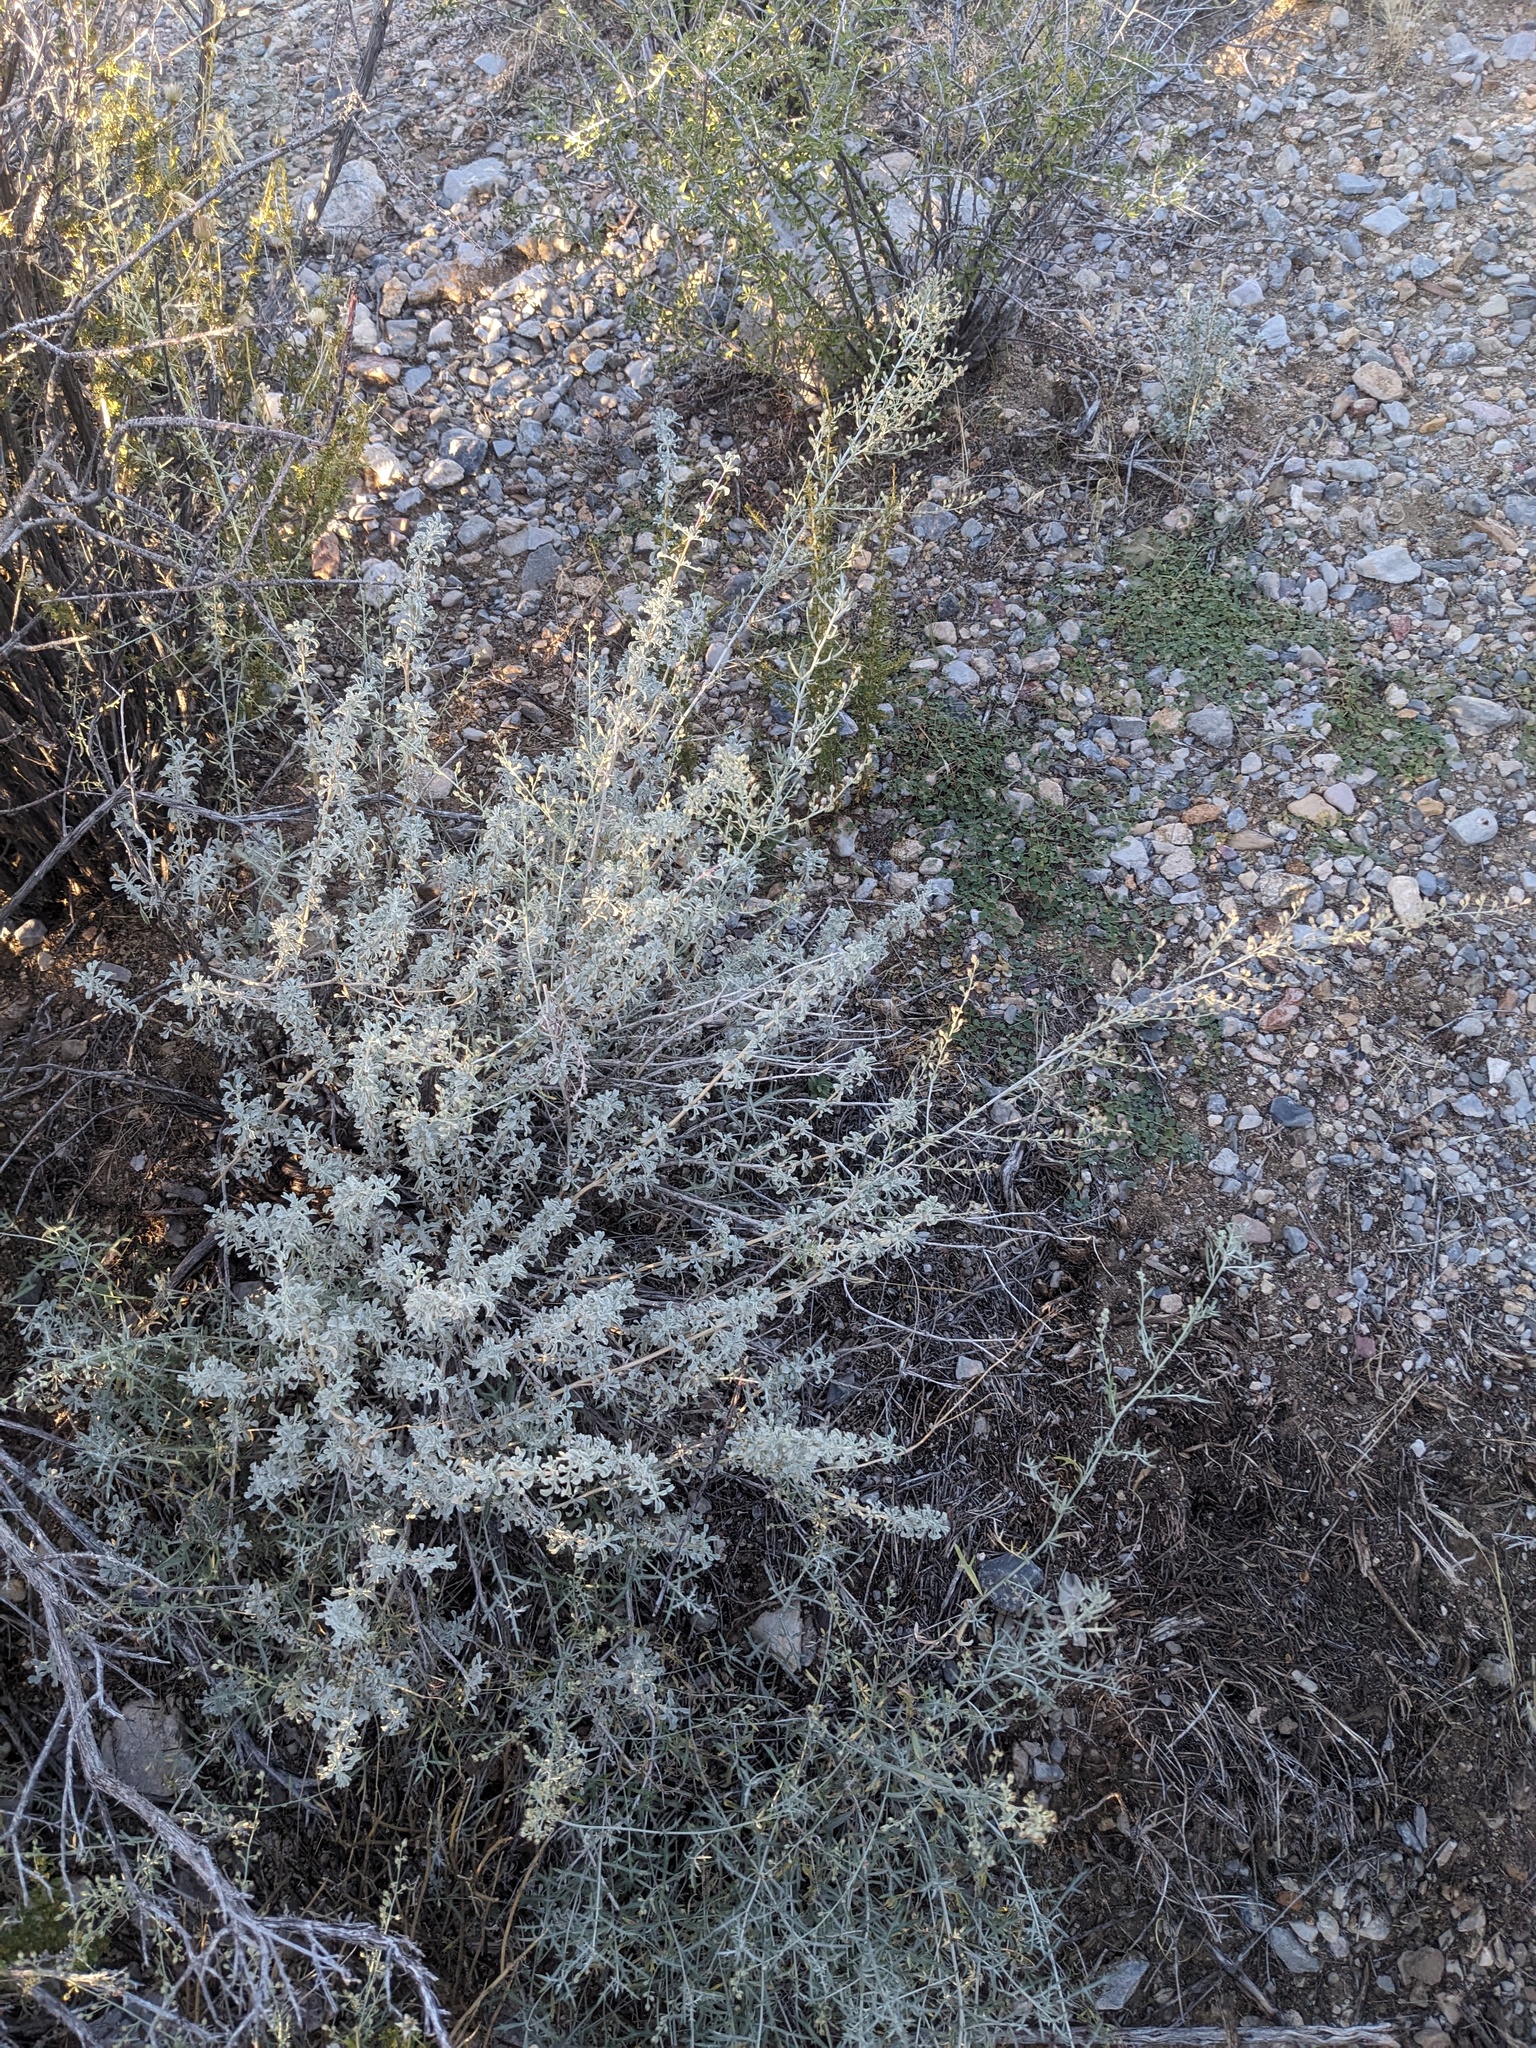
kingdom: Plantae
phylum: Tracheophyta
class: Magnoliopsida
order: Asterales
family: Asteraceae
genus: Artemisia
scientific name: Artemisia bigelovii
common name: Bigelow sagebrush
